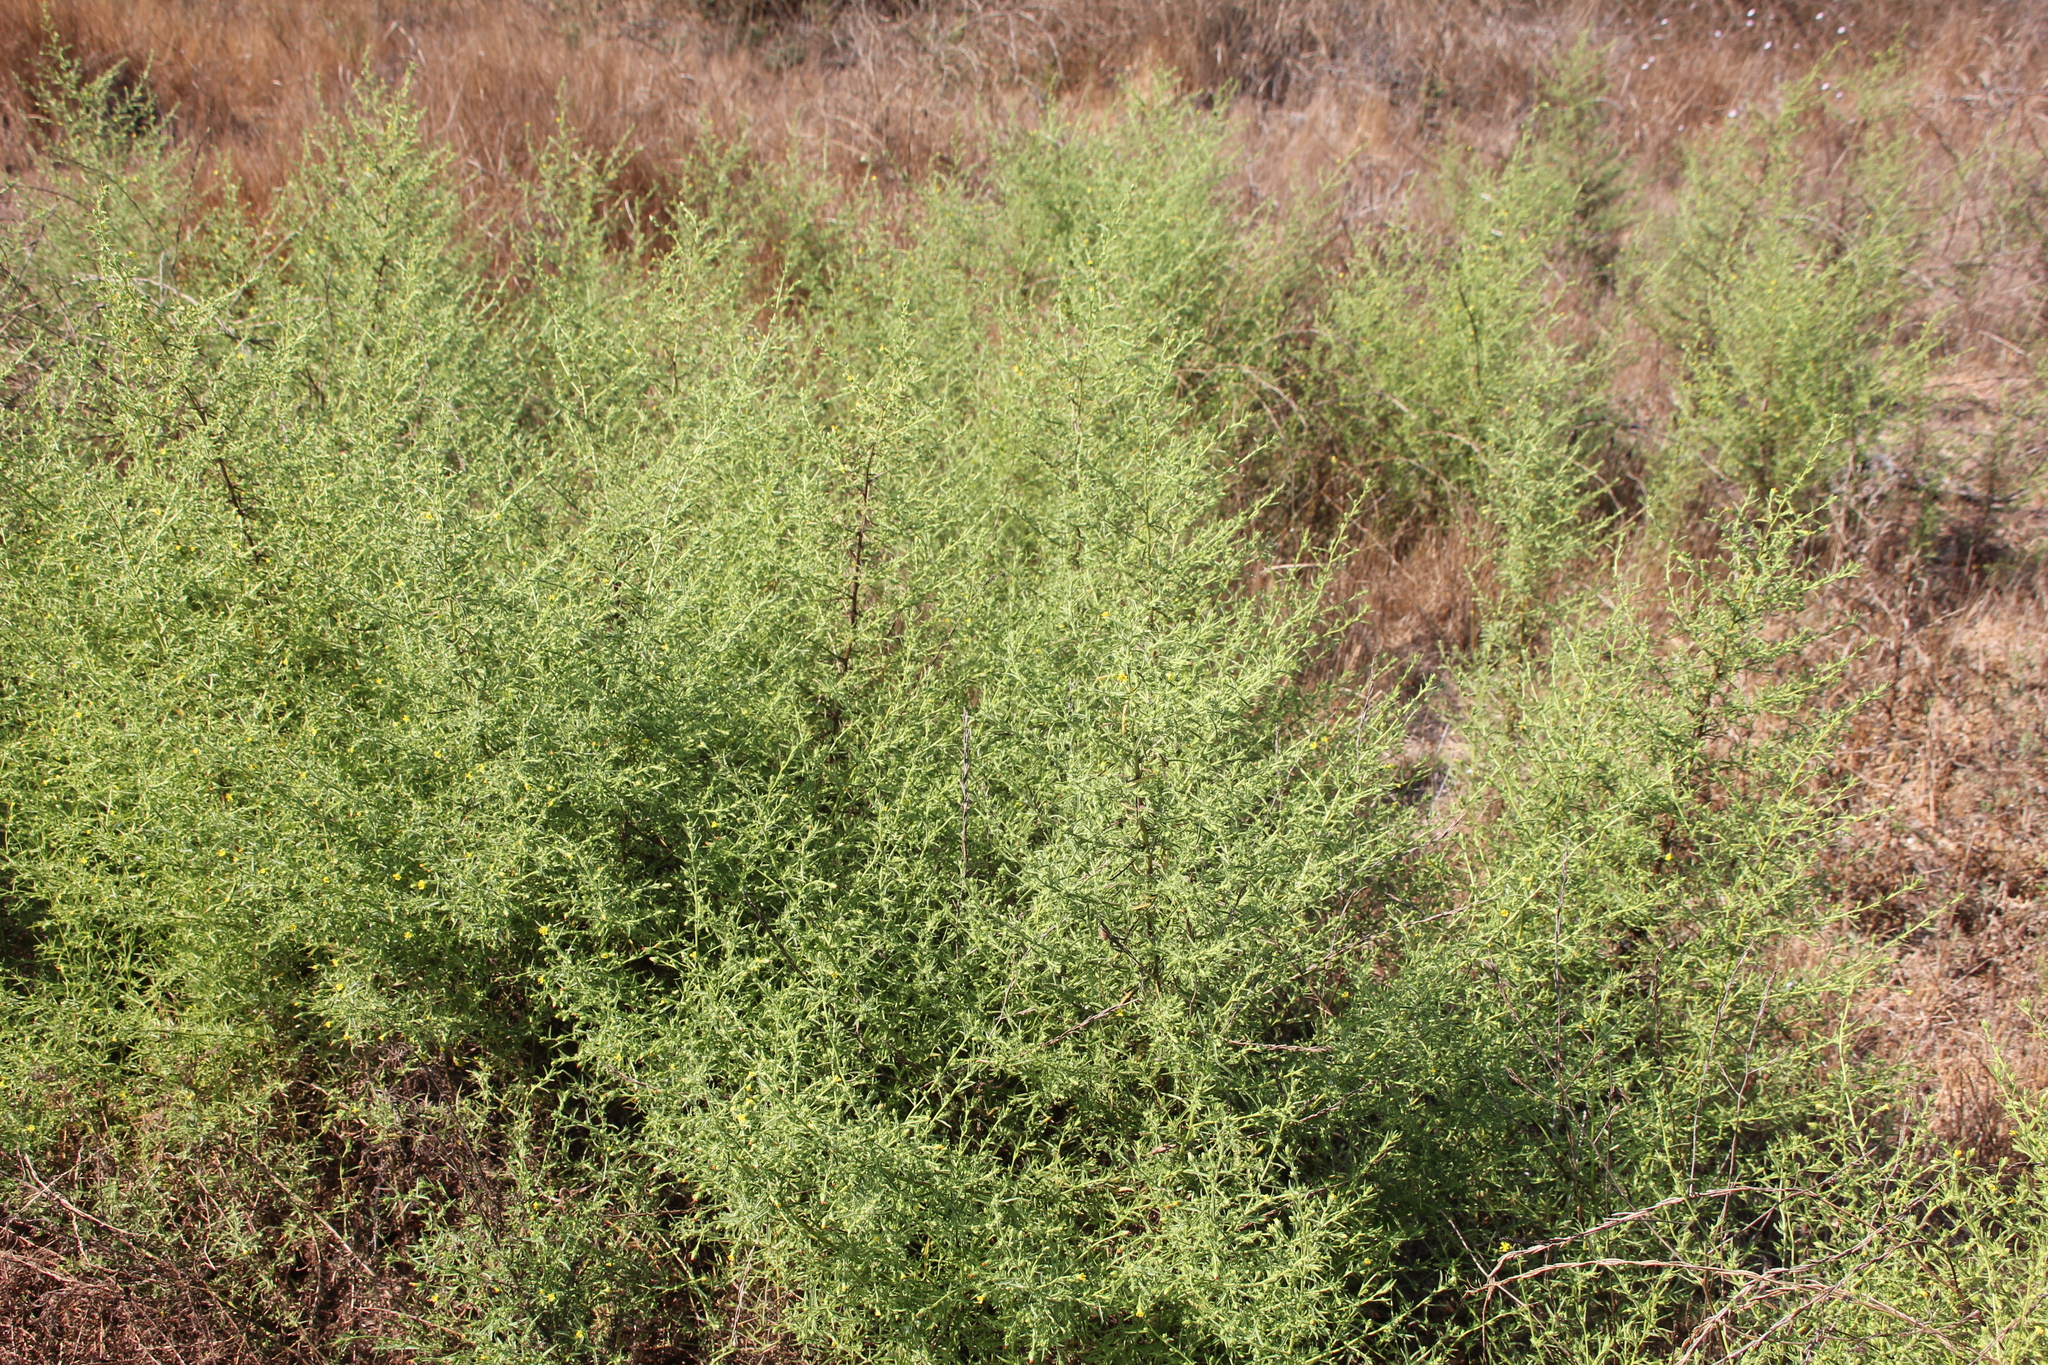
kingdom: Plantae
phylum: Tracheophyta
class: Magnoliopsida
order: Asterales
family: Asteraceae
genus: Dittrichia
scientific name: Dittrichia graveolens
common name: Stinking fleabane
